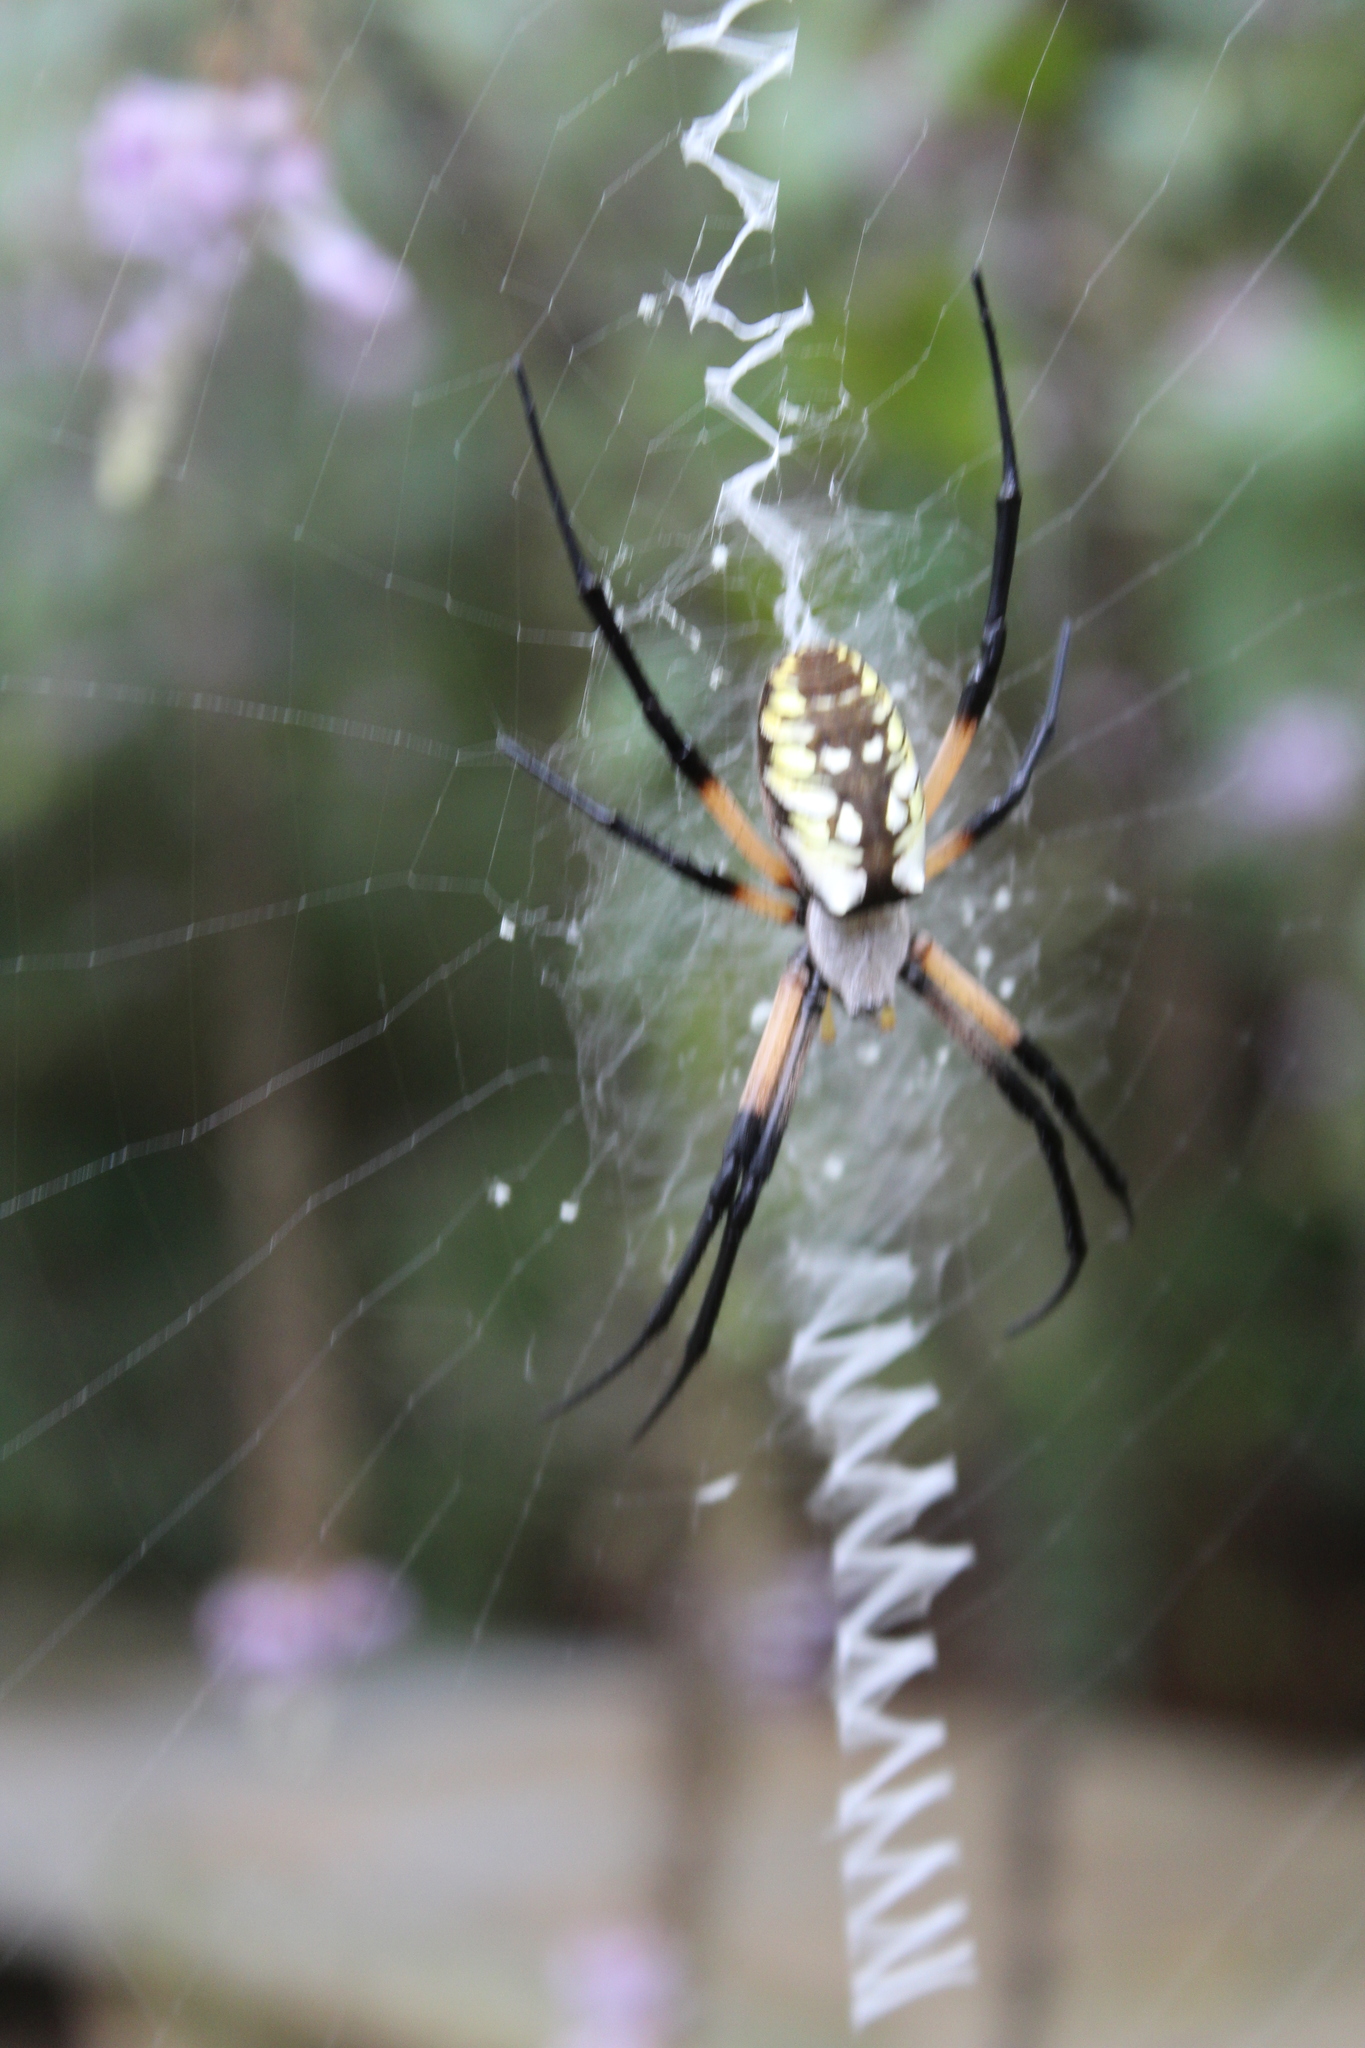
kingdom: Animalia
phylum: Arthropoda
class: Arachnida
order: Araneae
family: Araneidae
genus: Argiope
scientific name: Argiope aurantia
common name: Orb weavers
